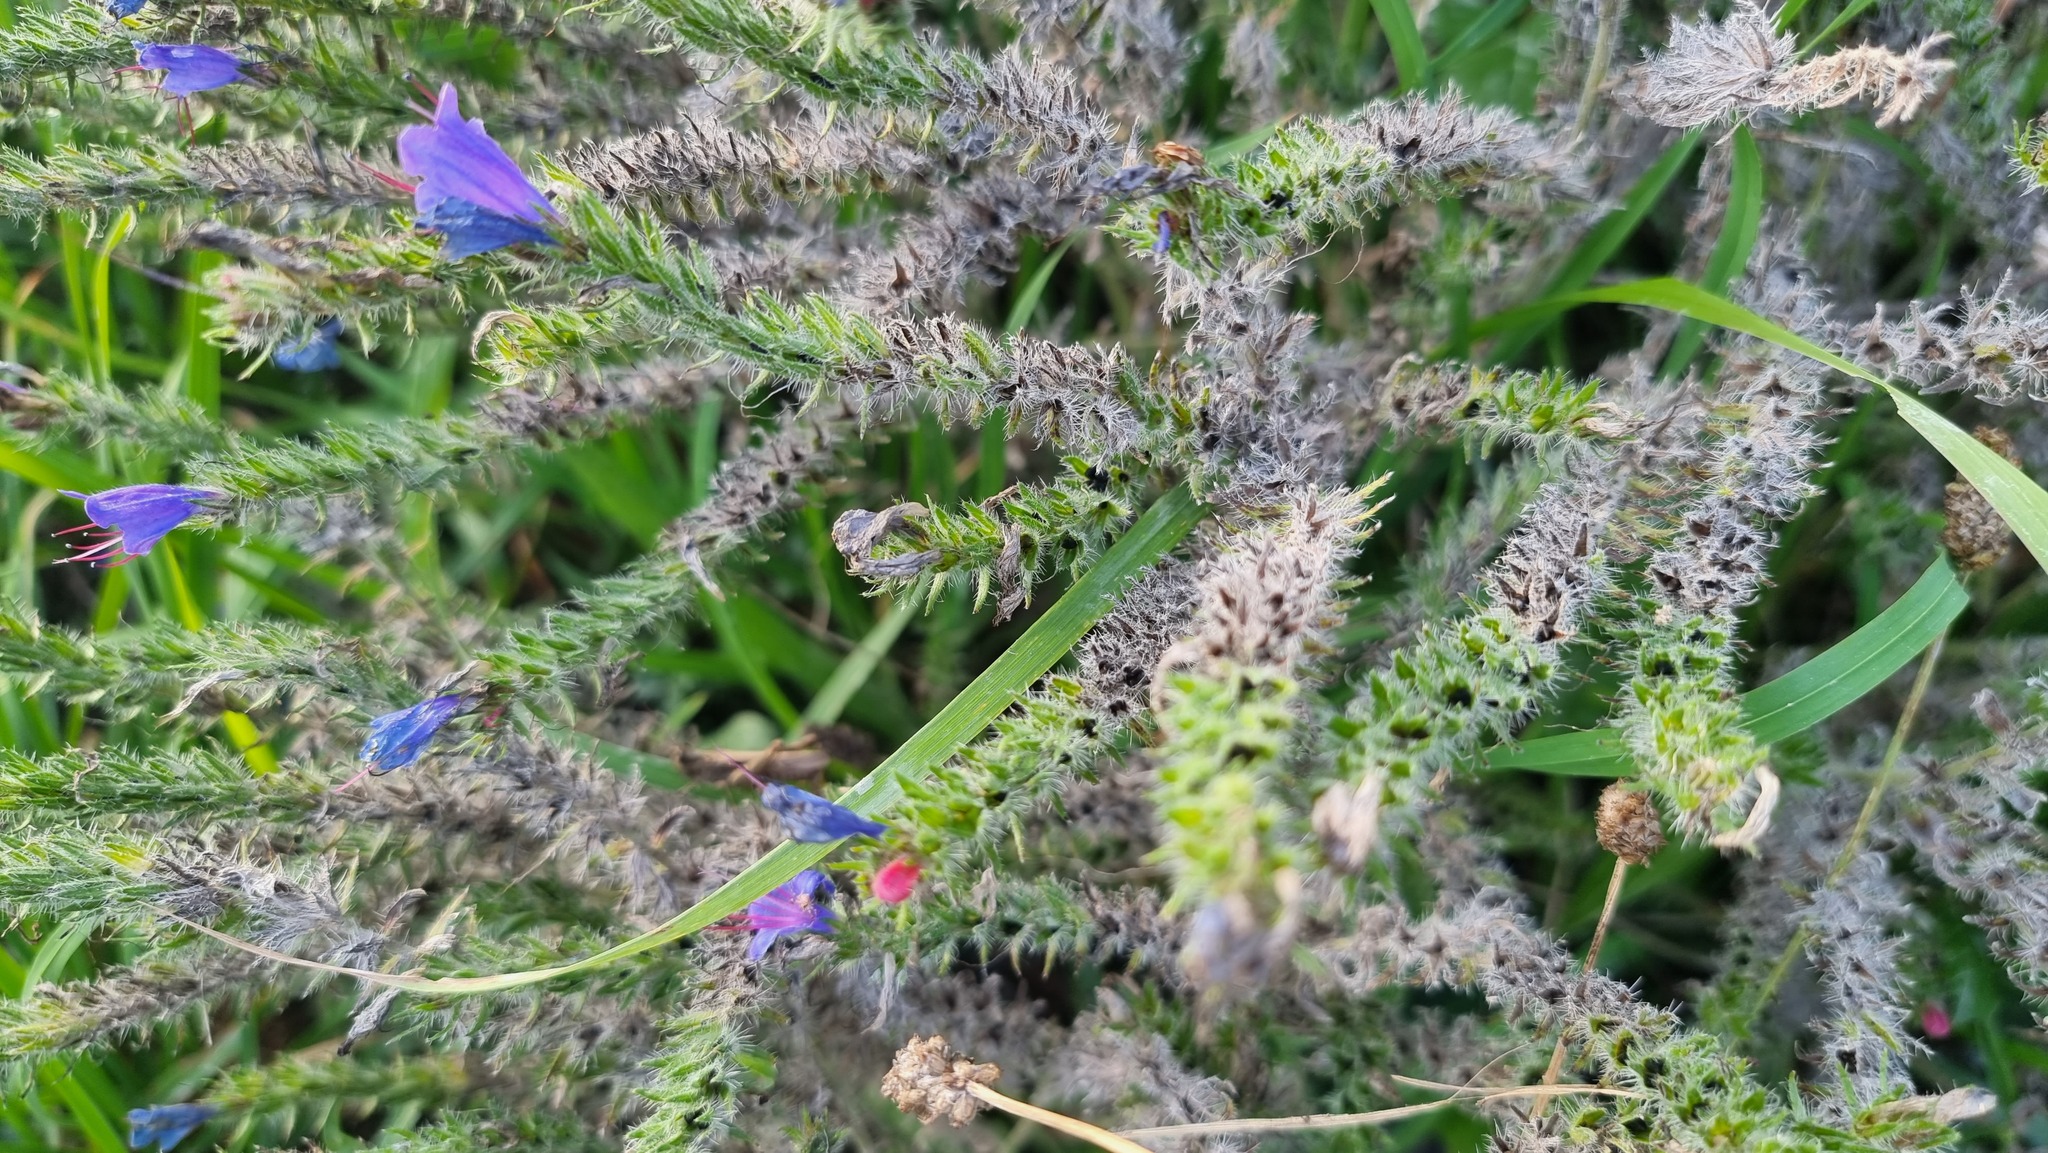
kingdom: Plantae
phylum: Tracheophyta
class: Magnoliopsida
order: Boraginales
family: Boraginaceae
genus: Echium
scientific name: Echium vulgare
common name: Common viper's bugloss
